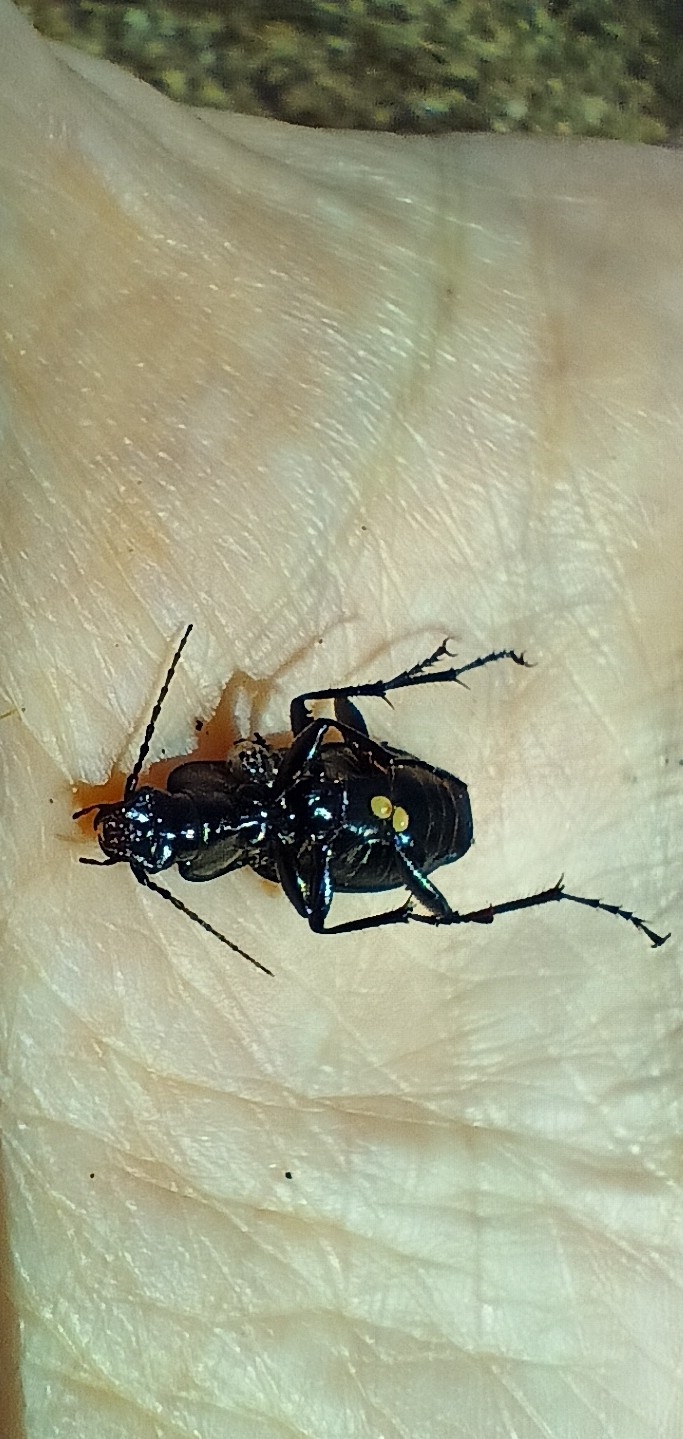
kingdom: Animalia
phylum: Arthropoda
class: Insecta
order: Coleoptera
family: Carabidae
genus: Pterostichus
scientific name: Pterostichus niger
